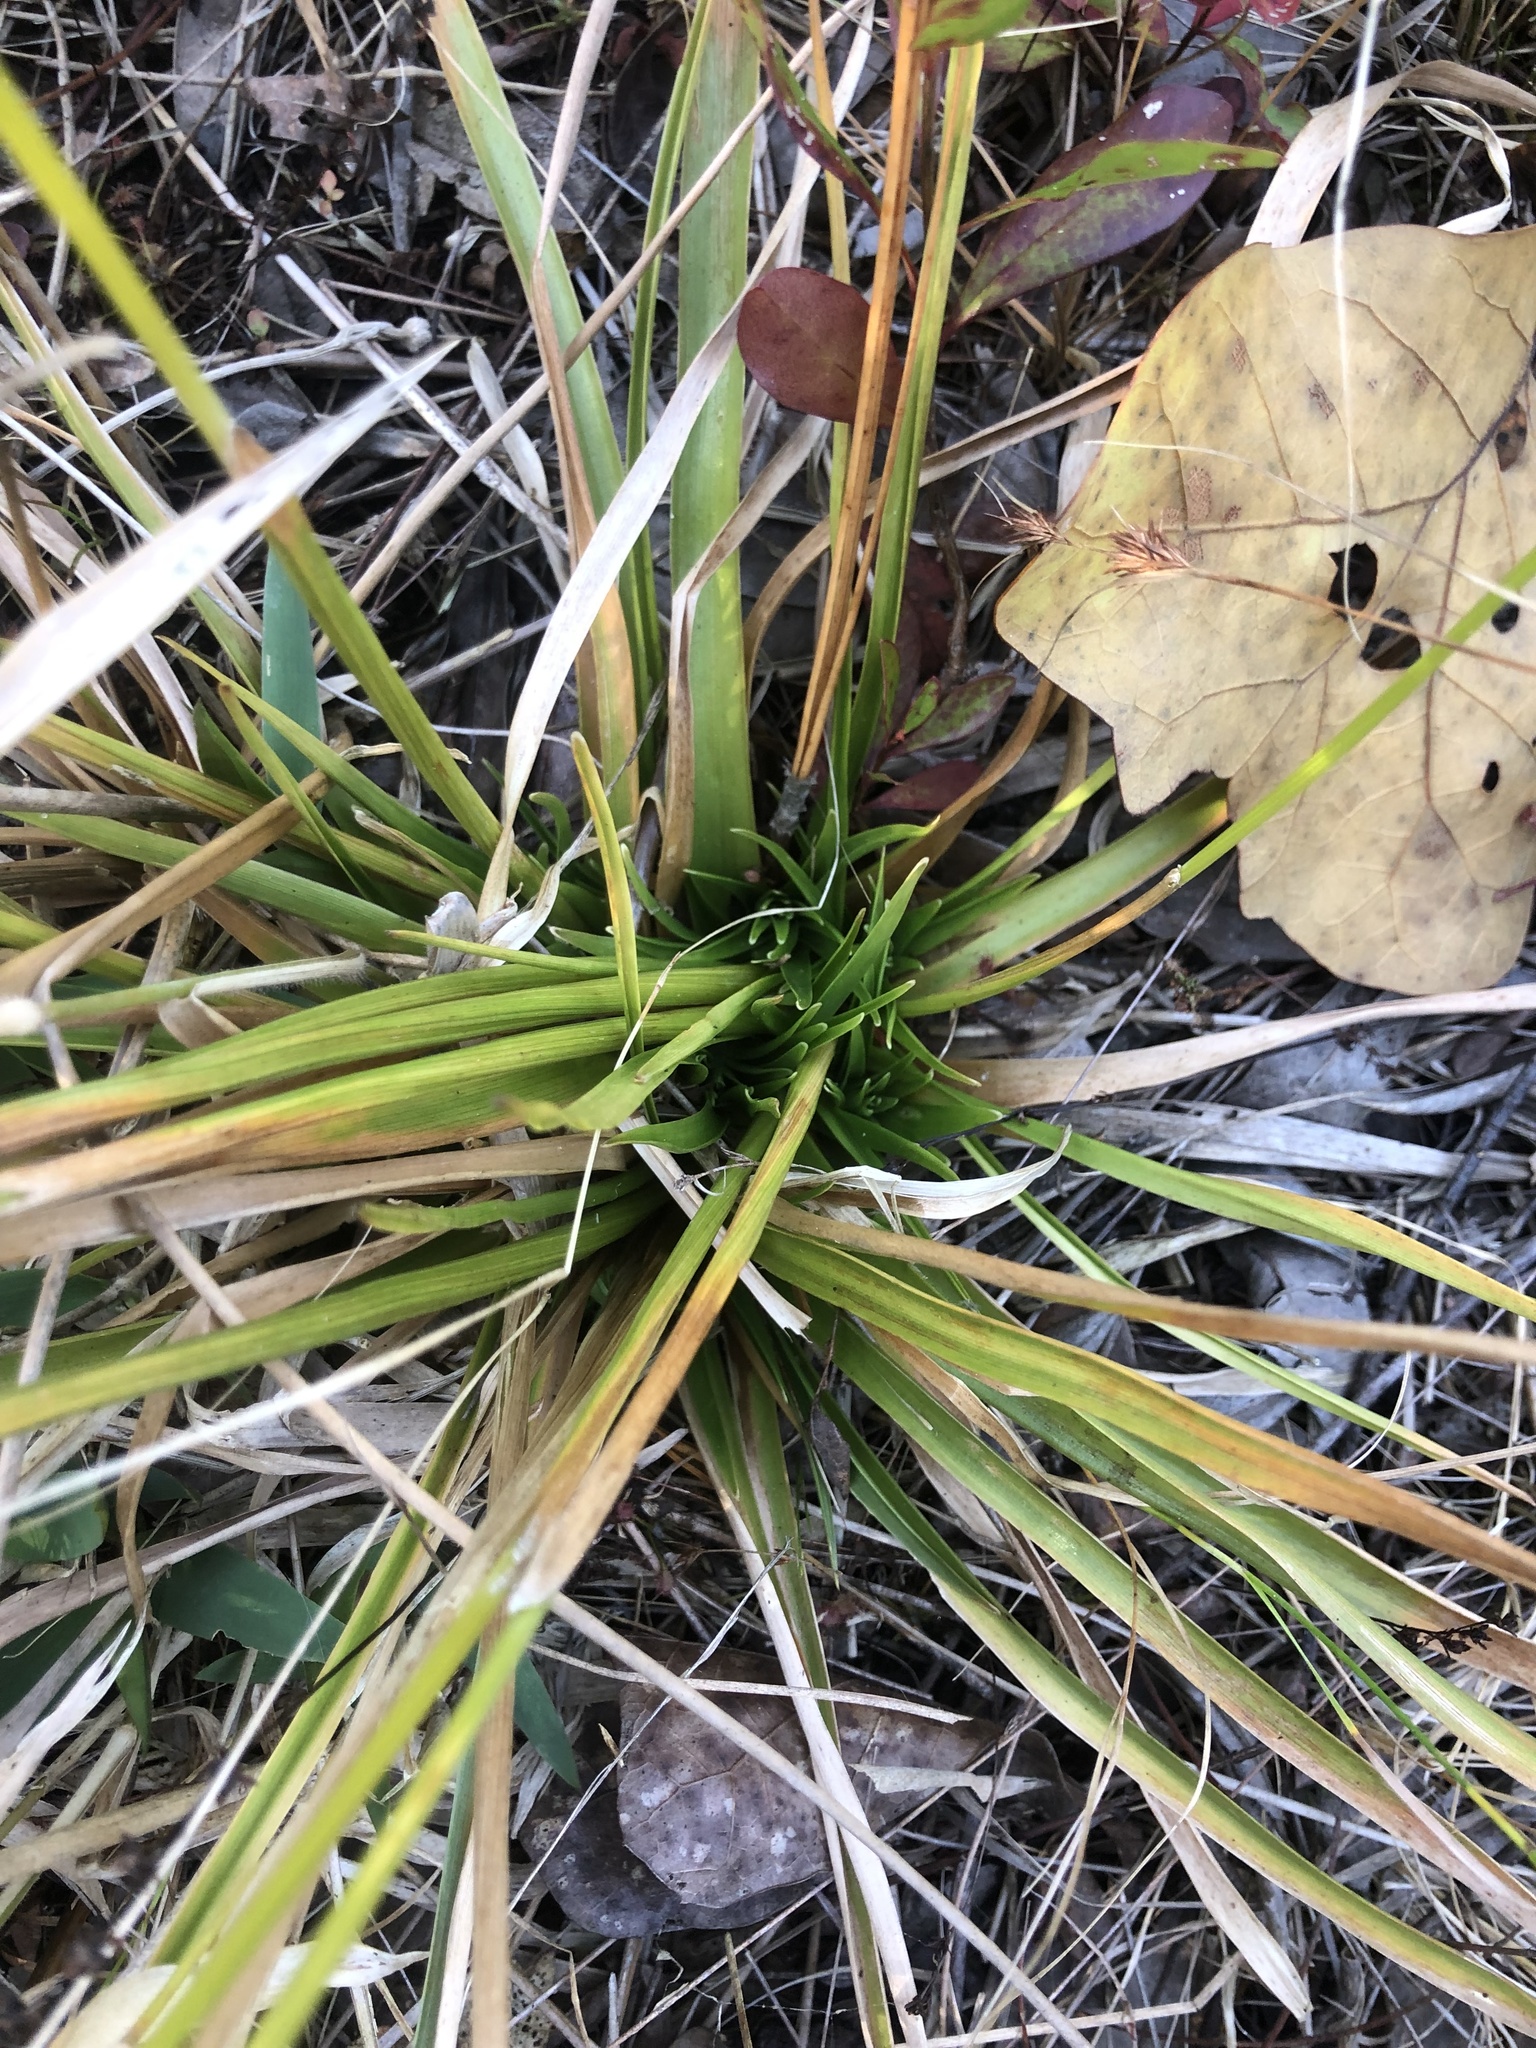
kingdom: Plantae
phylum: Tracheophyta
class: Liliopsida
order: Poales
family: Eriocaulaceae
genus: Eriocaulon
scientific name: Eriocaulon decangulare
